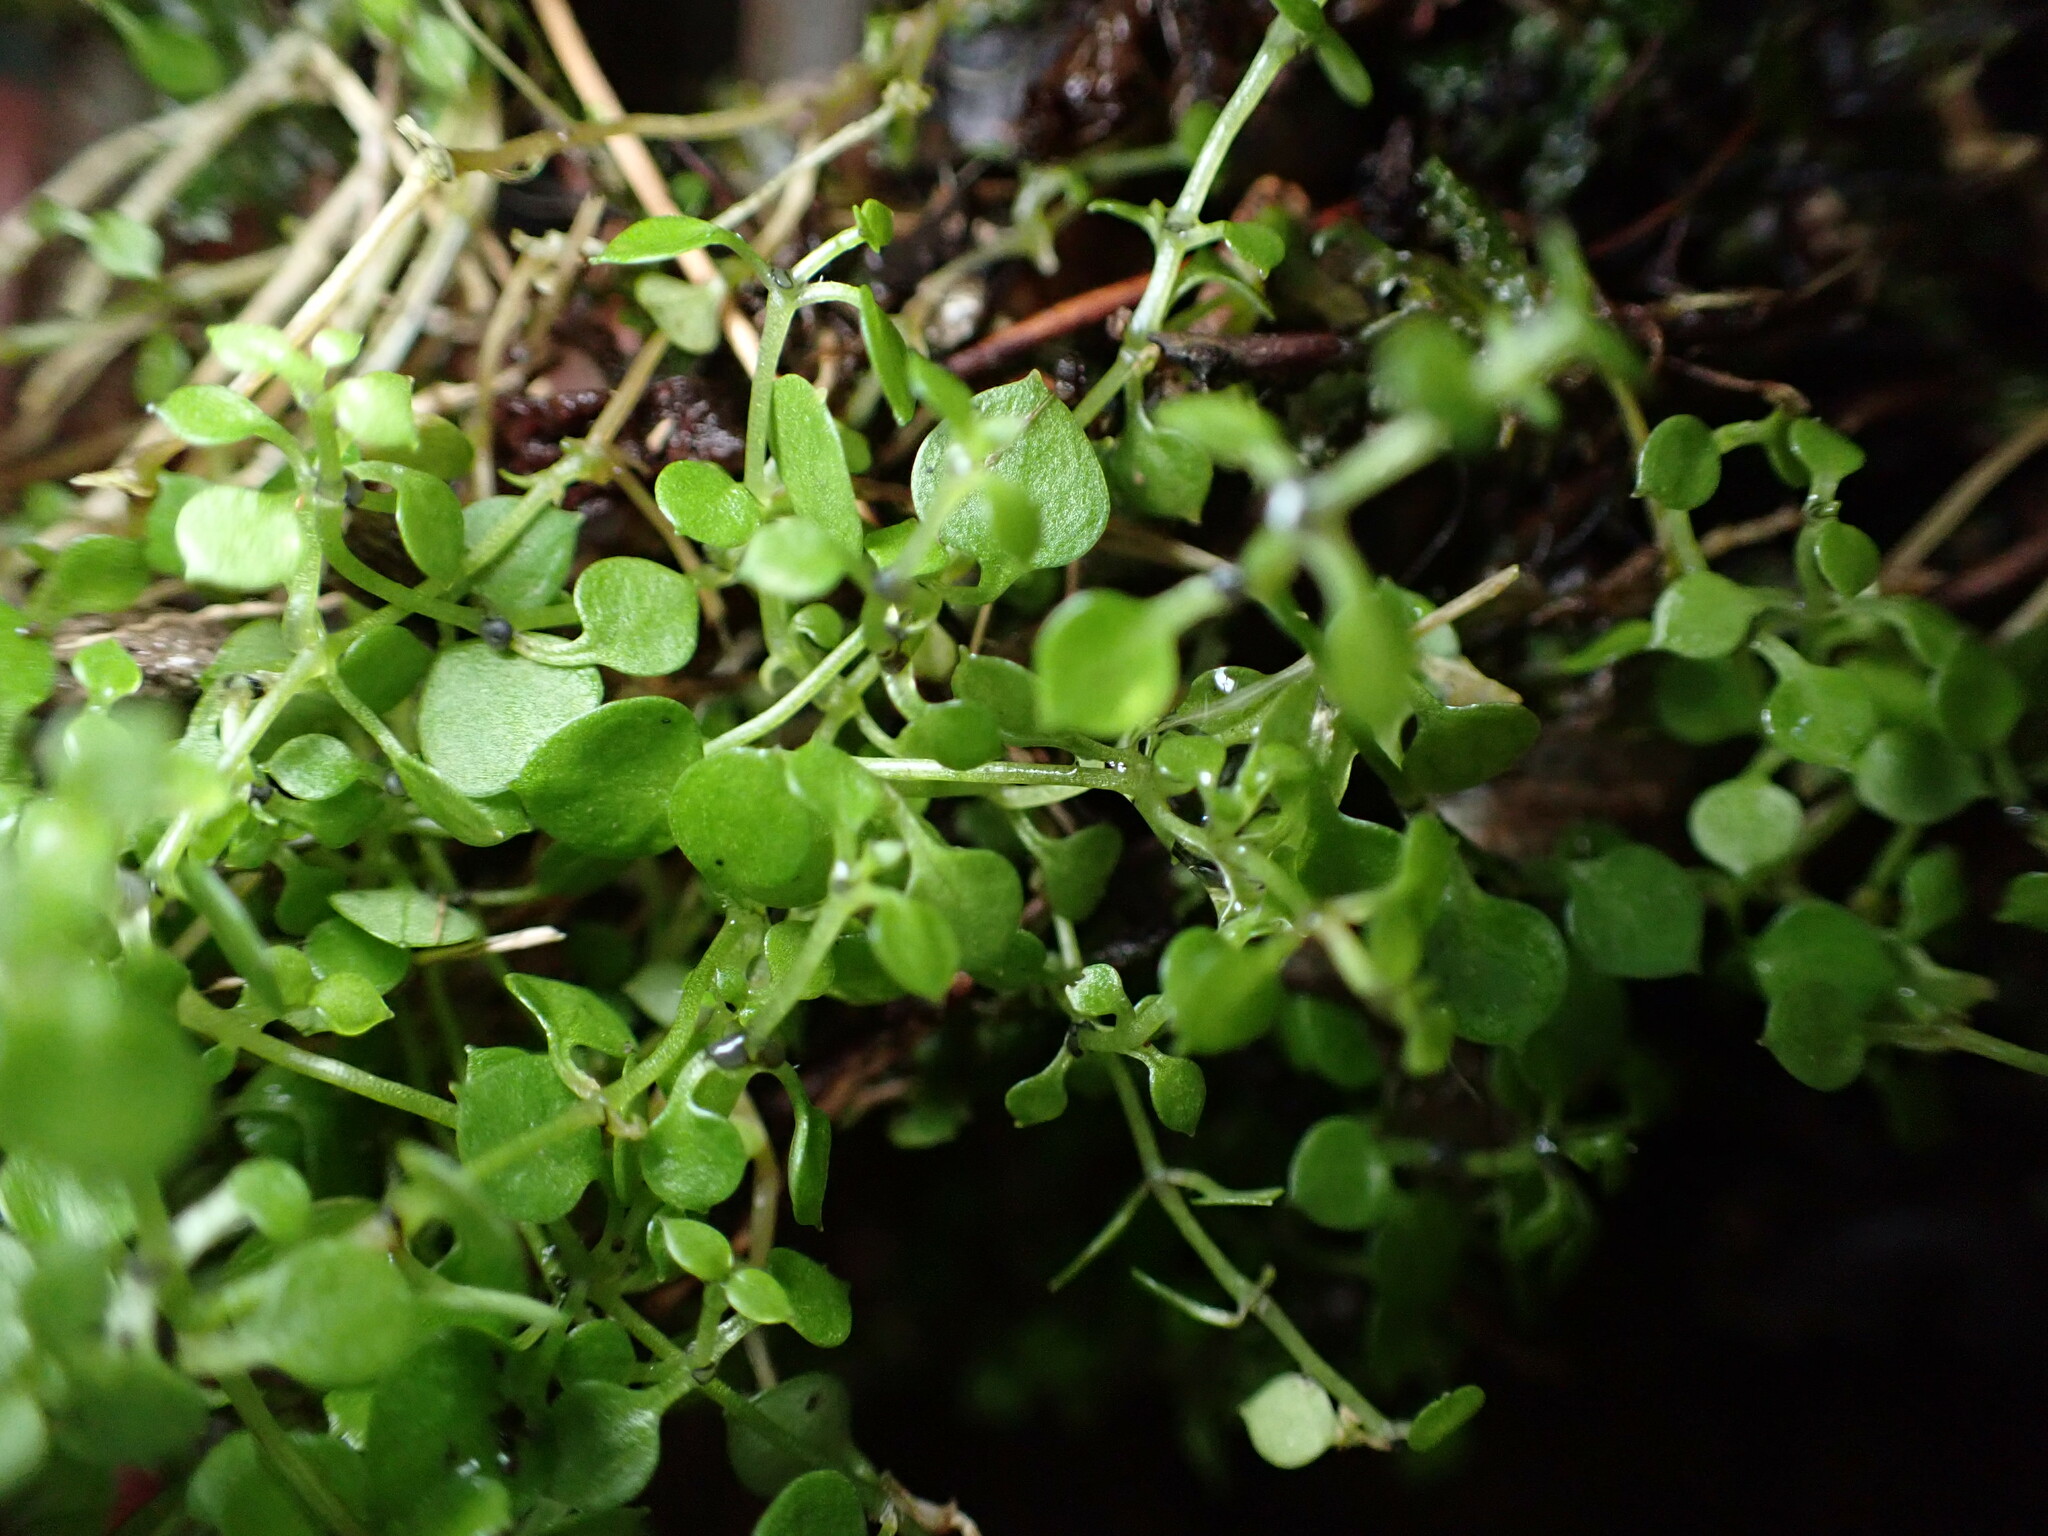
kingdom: Plantae
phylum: Tracheophyta
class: Magnoliopsida
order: Caryophyllales
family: Caryophyllaceae
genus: Stellaria
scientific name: Stellaria parviflora
